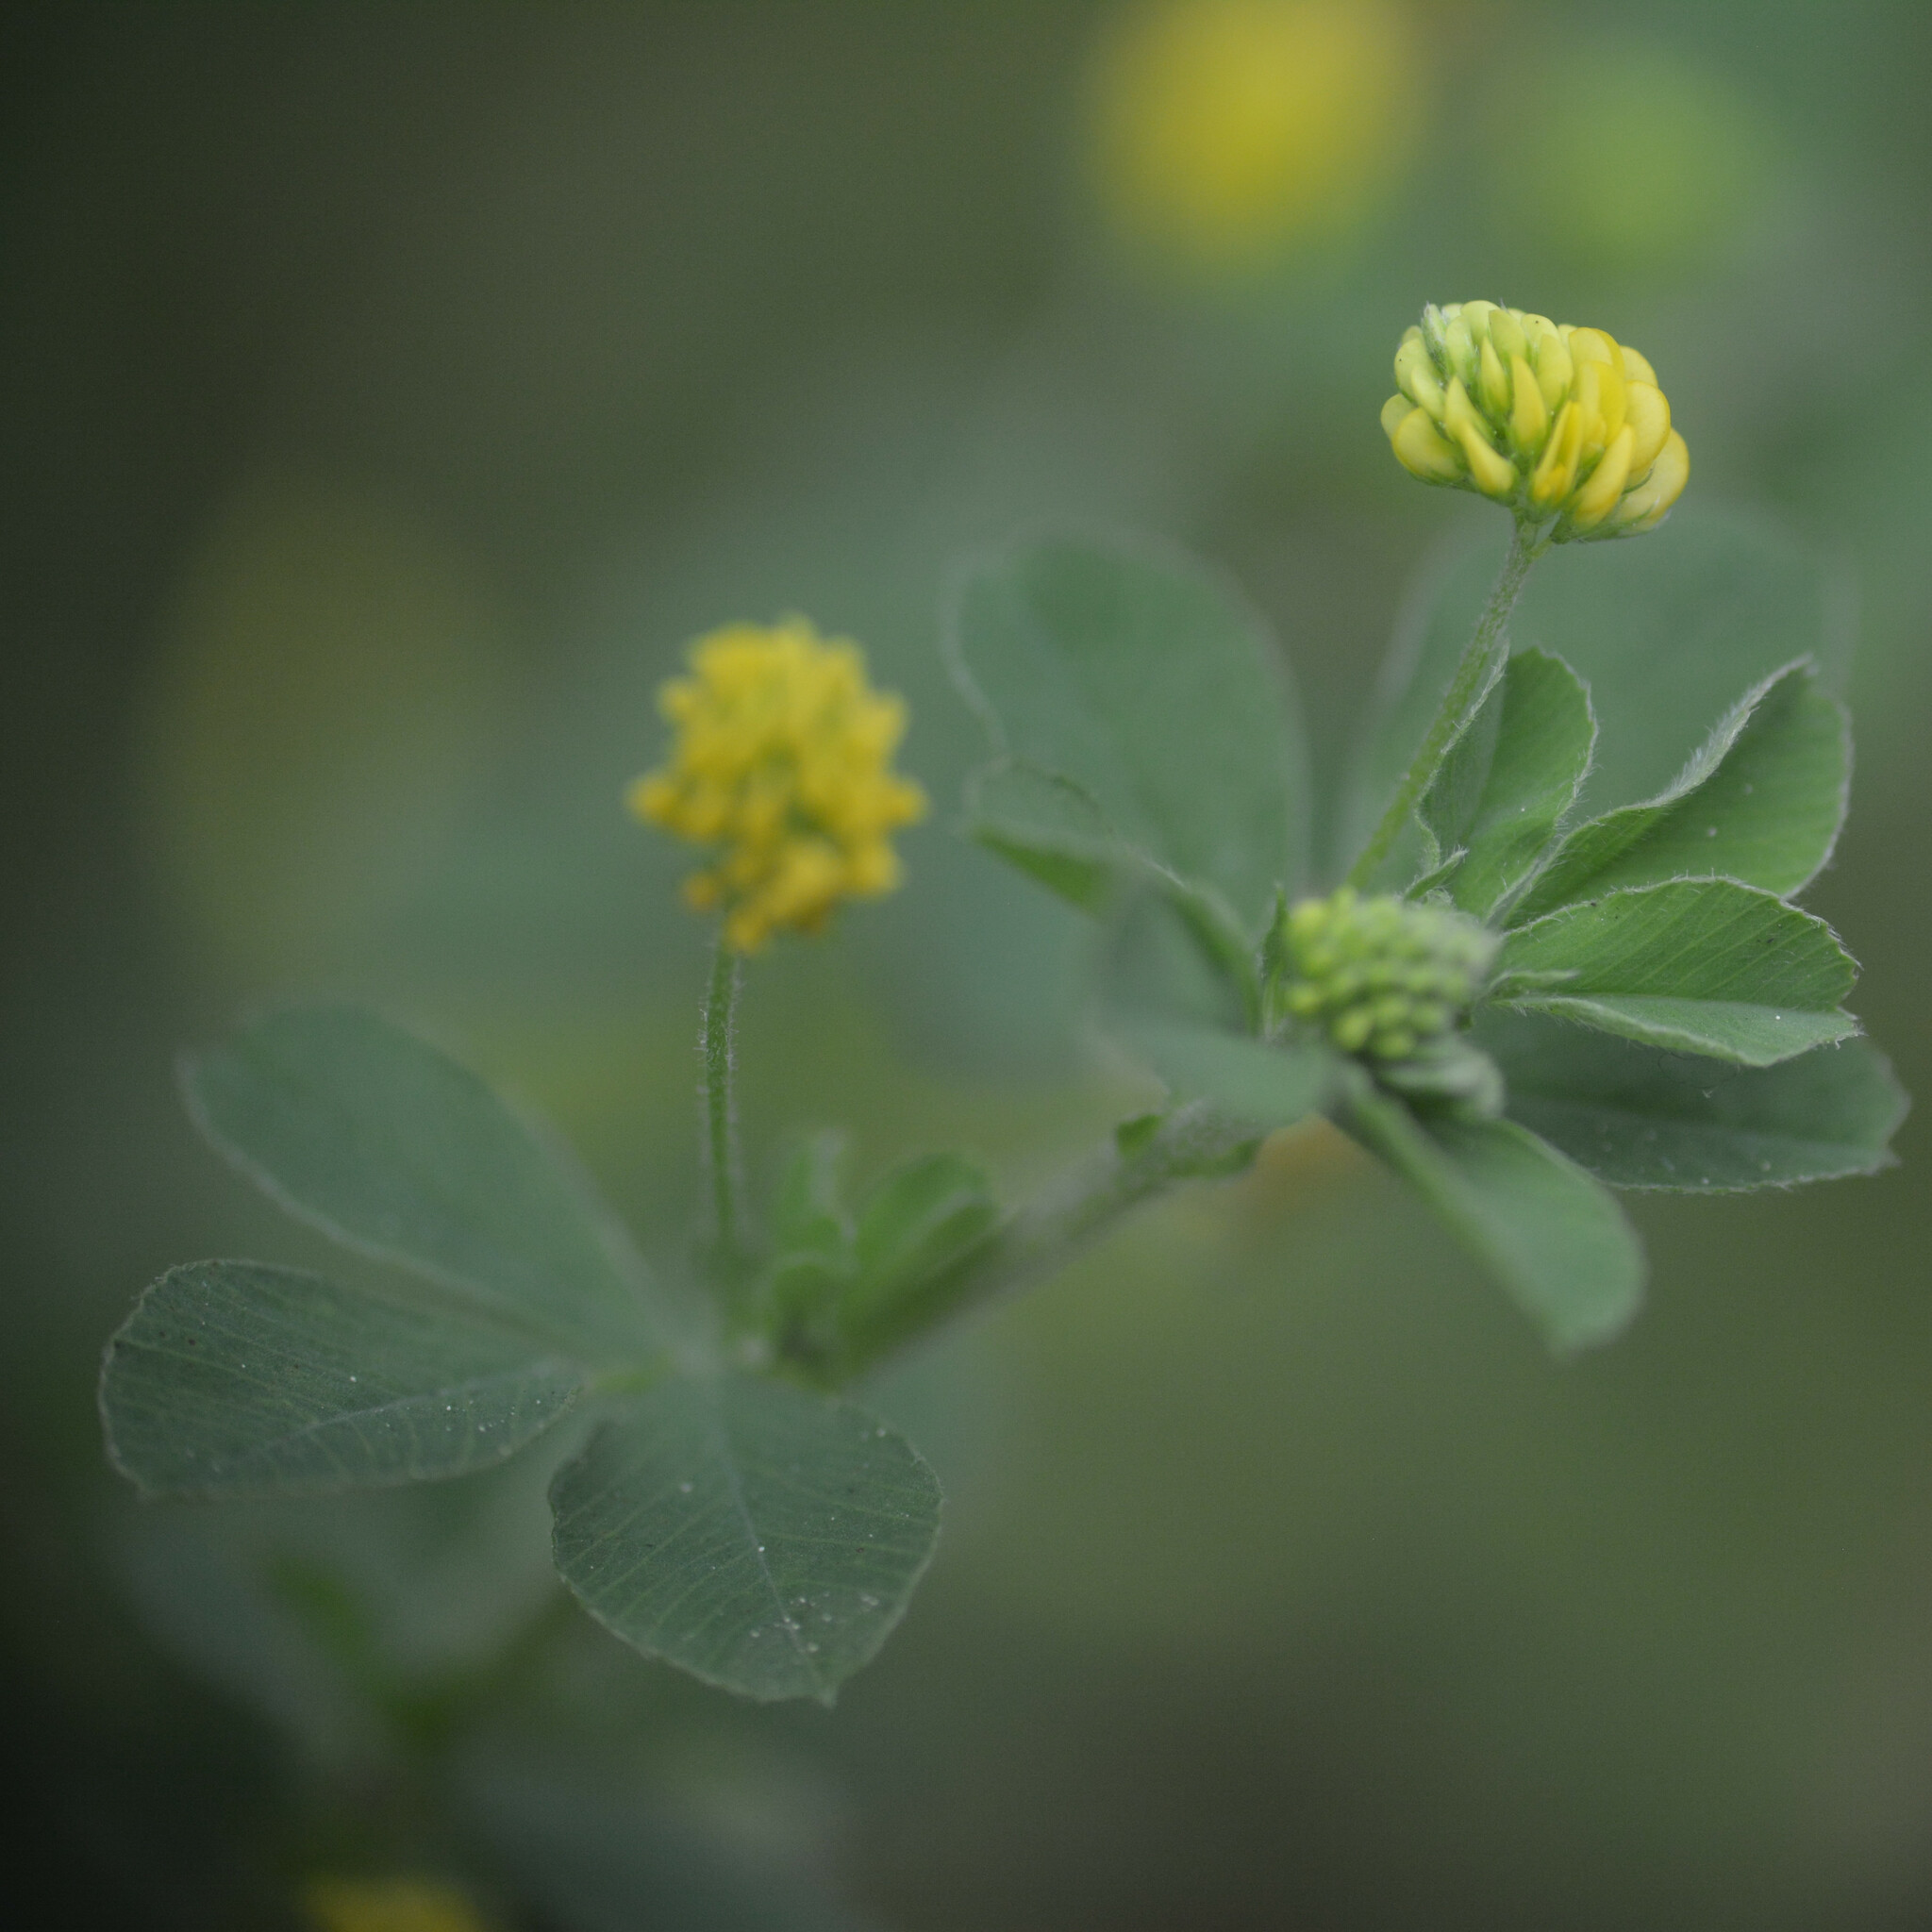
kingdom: Plantae
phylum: Tracheophyta
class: Magnoliopsida
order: Fabales
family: Fabaceae
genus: Medicago
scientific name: Medicago lupulina
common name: Black medick
